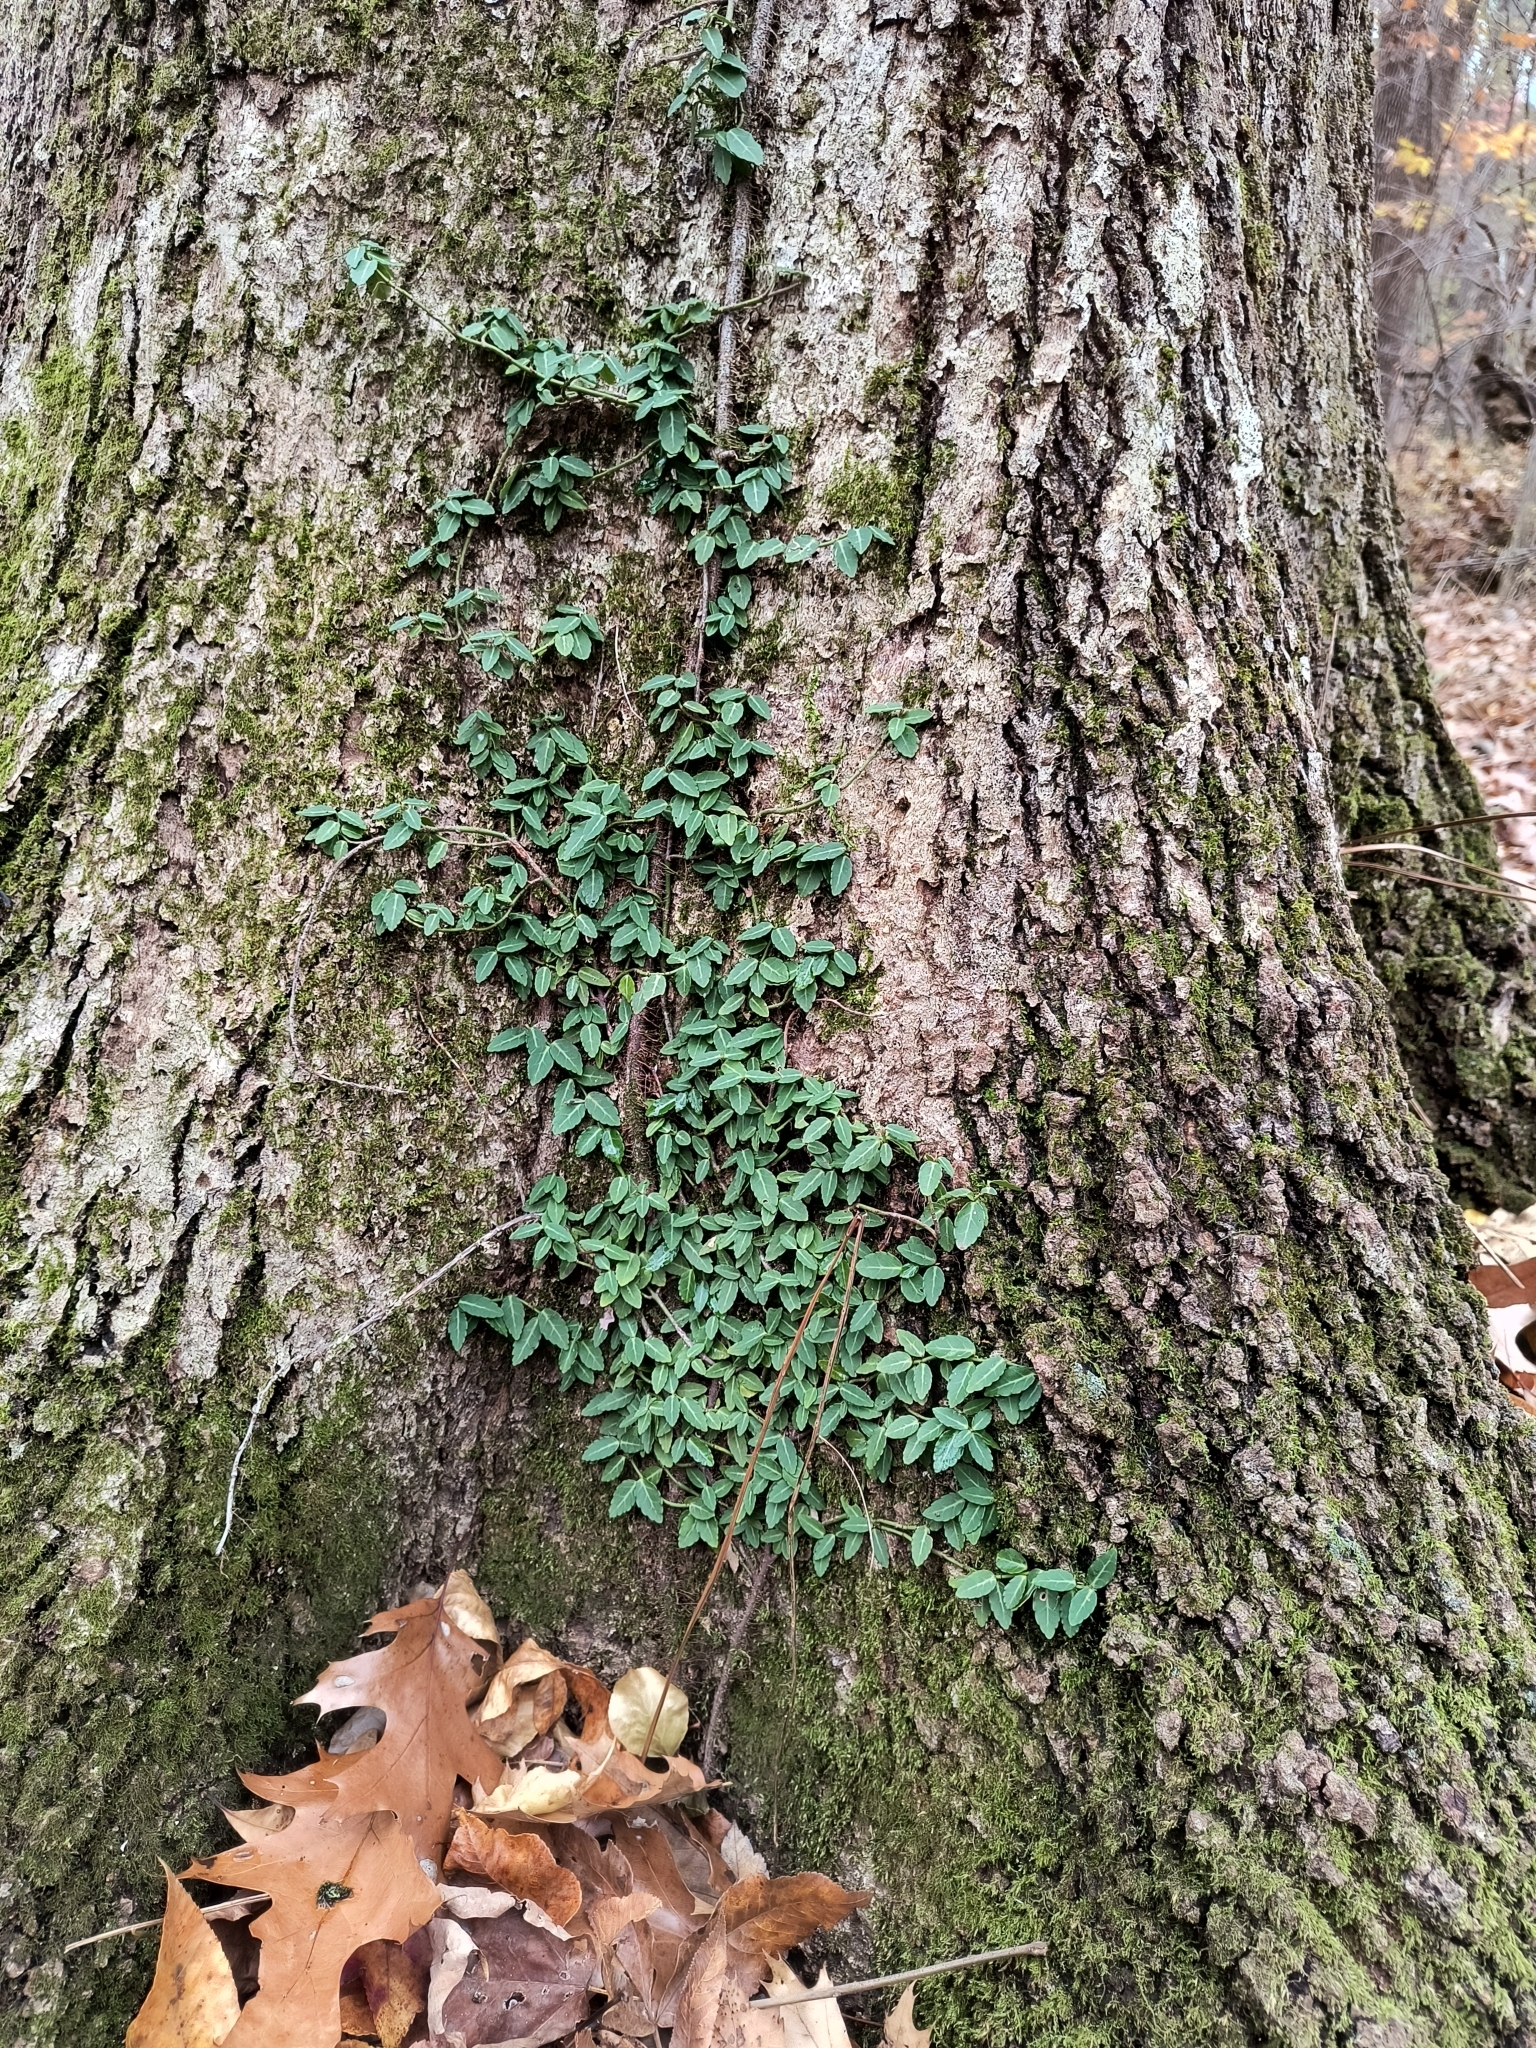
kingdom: Plantae
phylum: Tracheophyta
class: Magnoliopsida
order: Celastrales
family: Celastraceae
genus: Euonymus
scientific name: Euonymus fortunei
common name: Climbing euonymus
